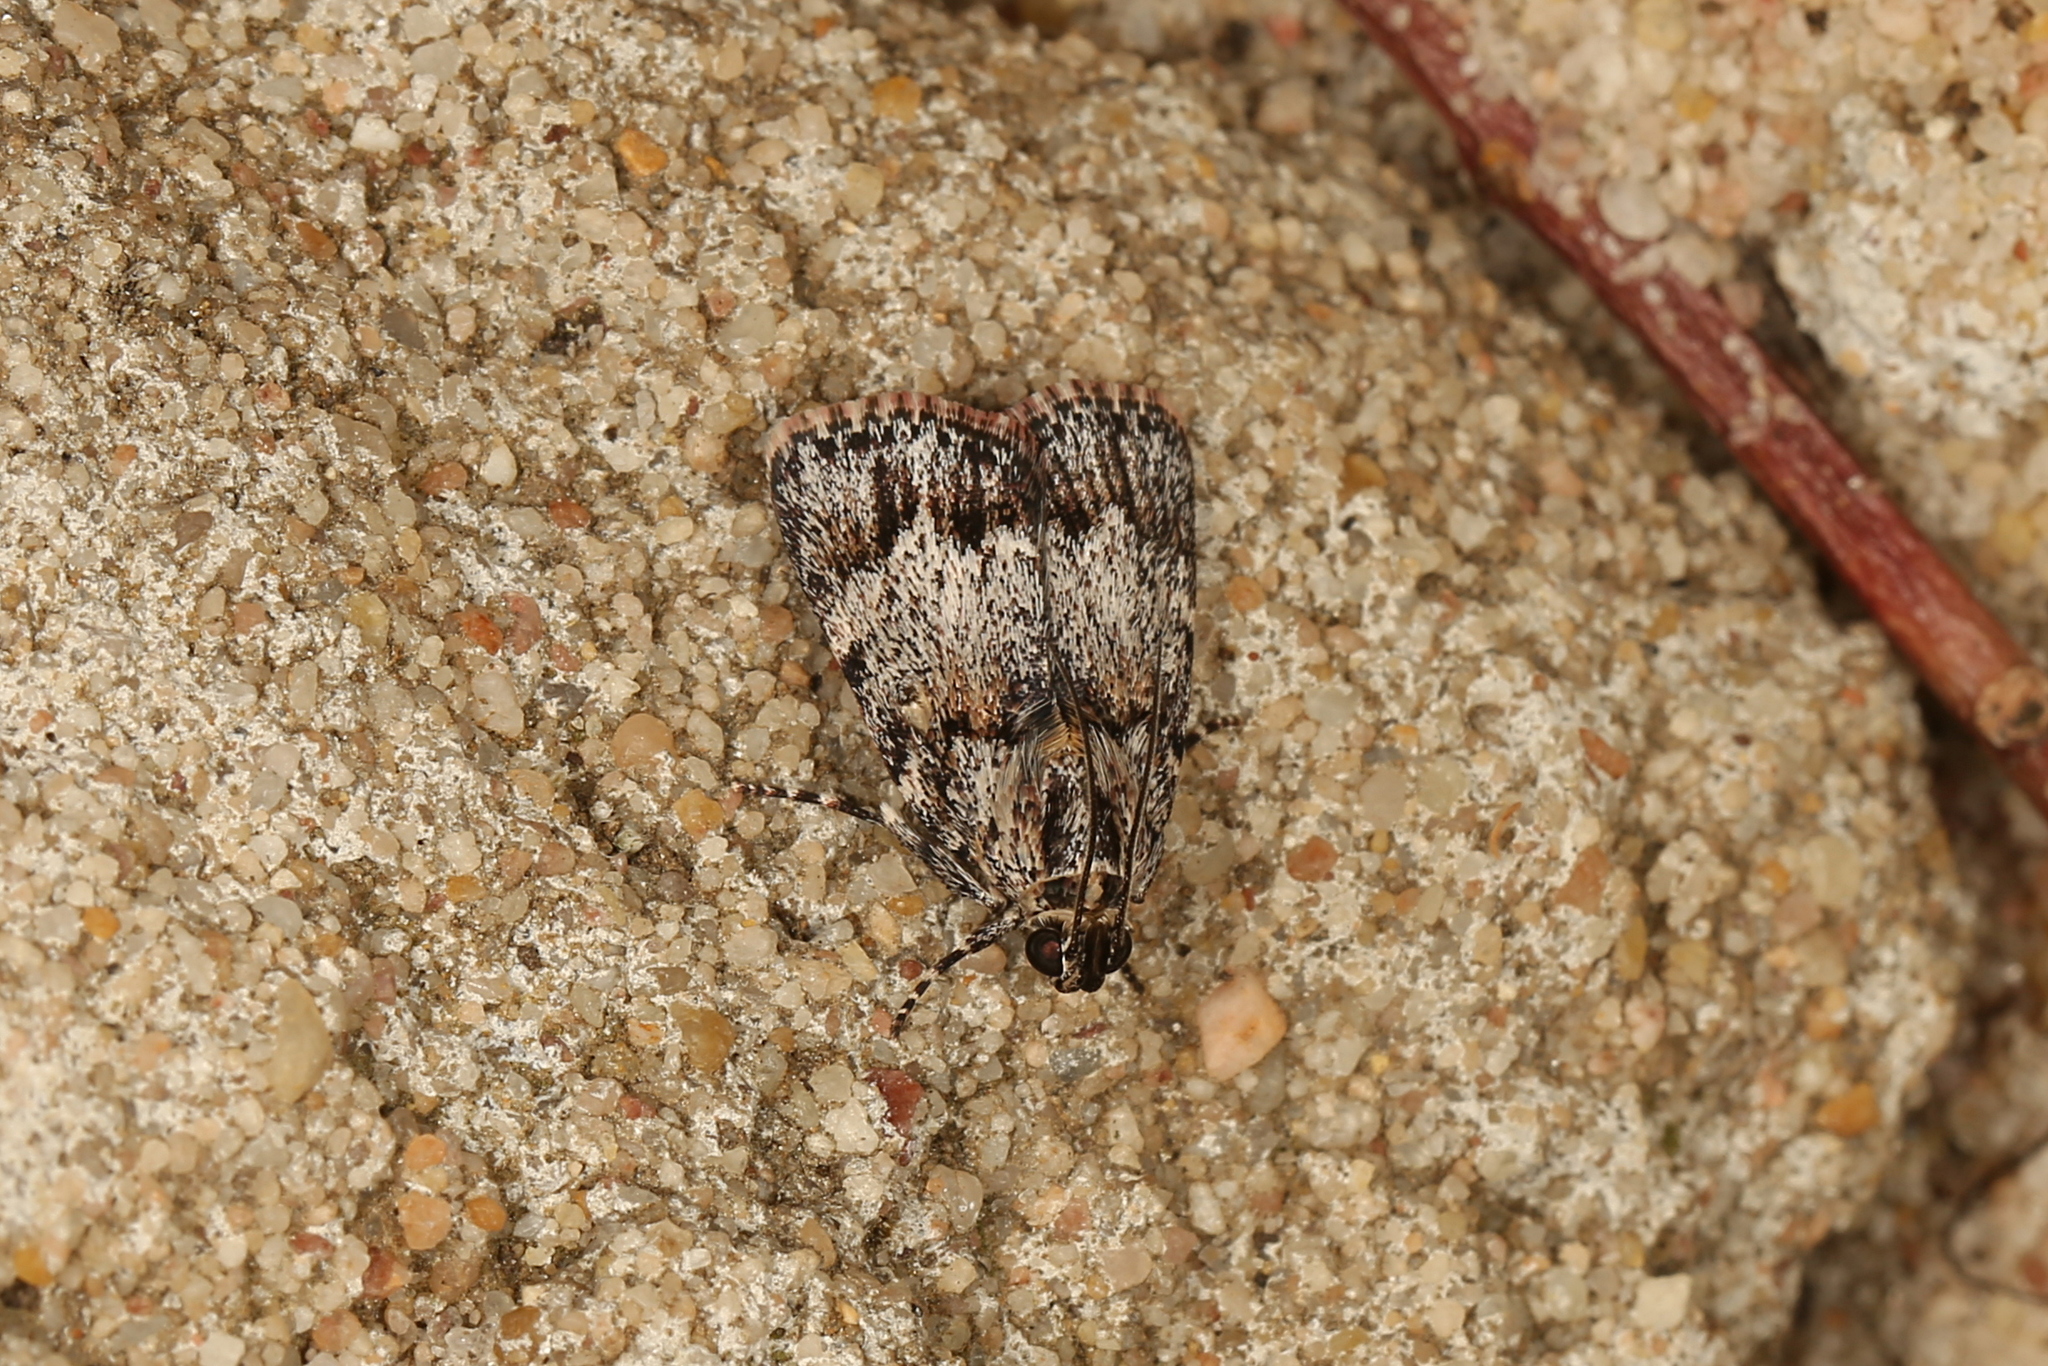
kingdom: Animalia
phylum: Arthropoda
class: Insecta
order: Lepidoptera
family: Pyralidae
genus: Spectrotrota
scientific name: Spectrotrota fimbrialis
